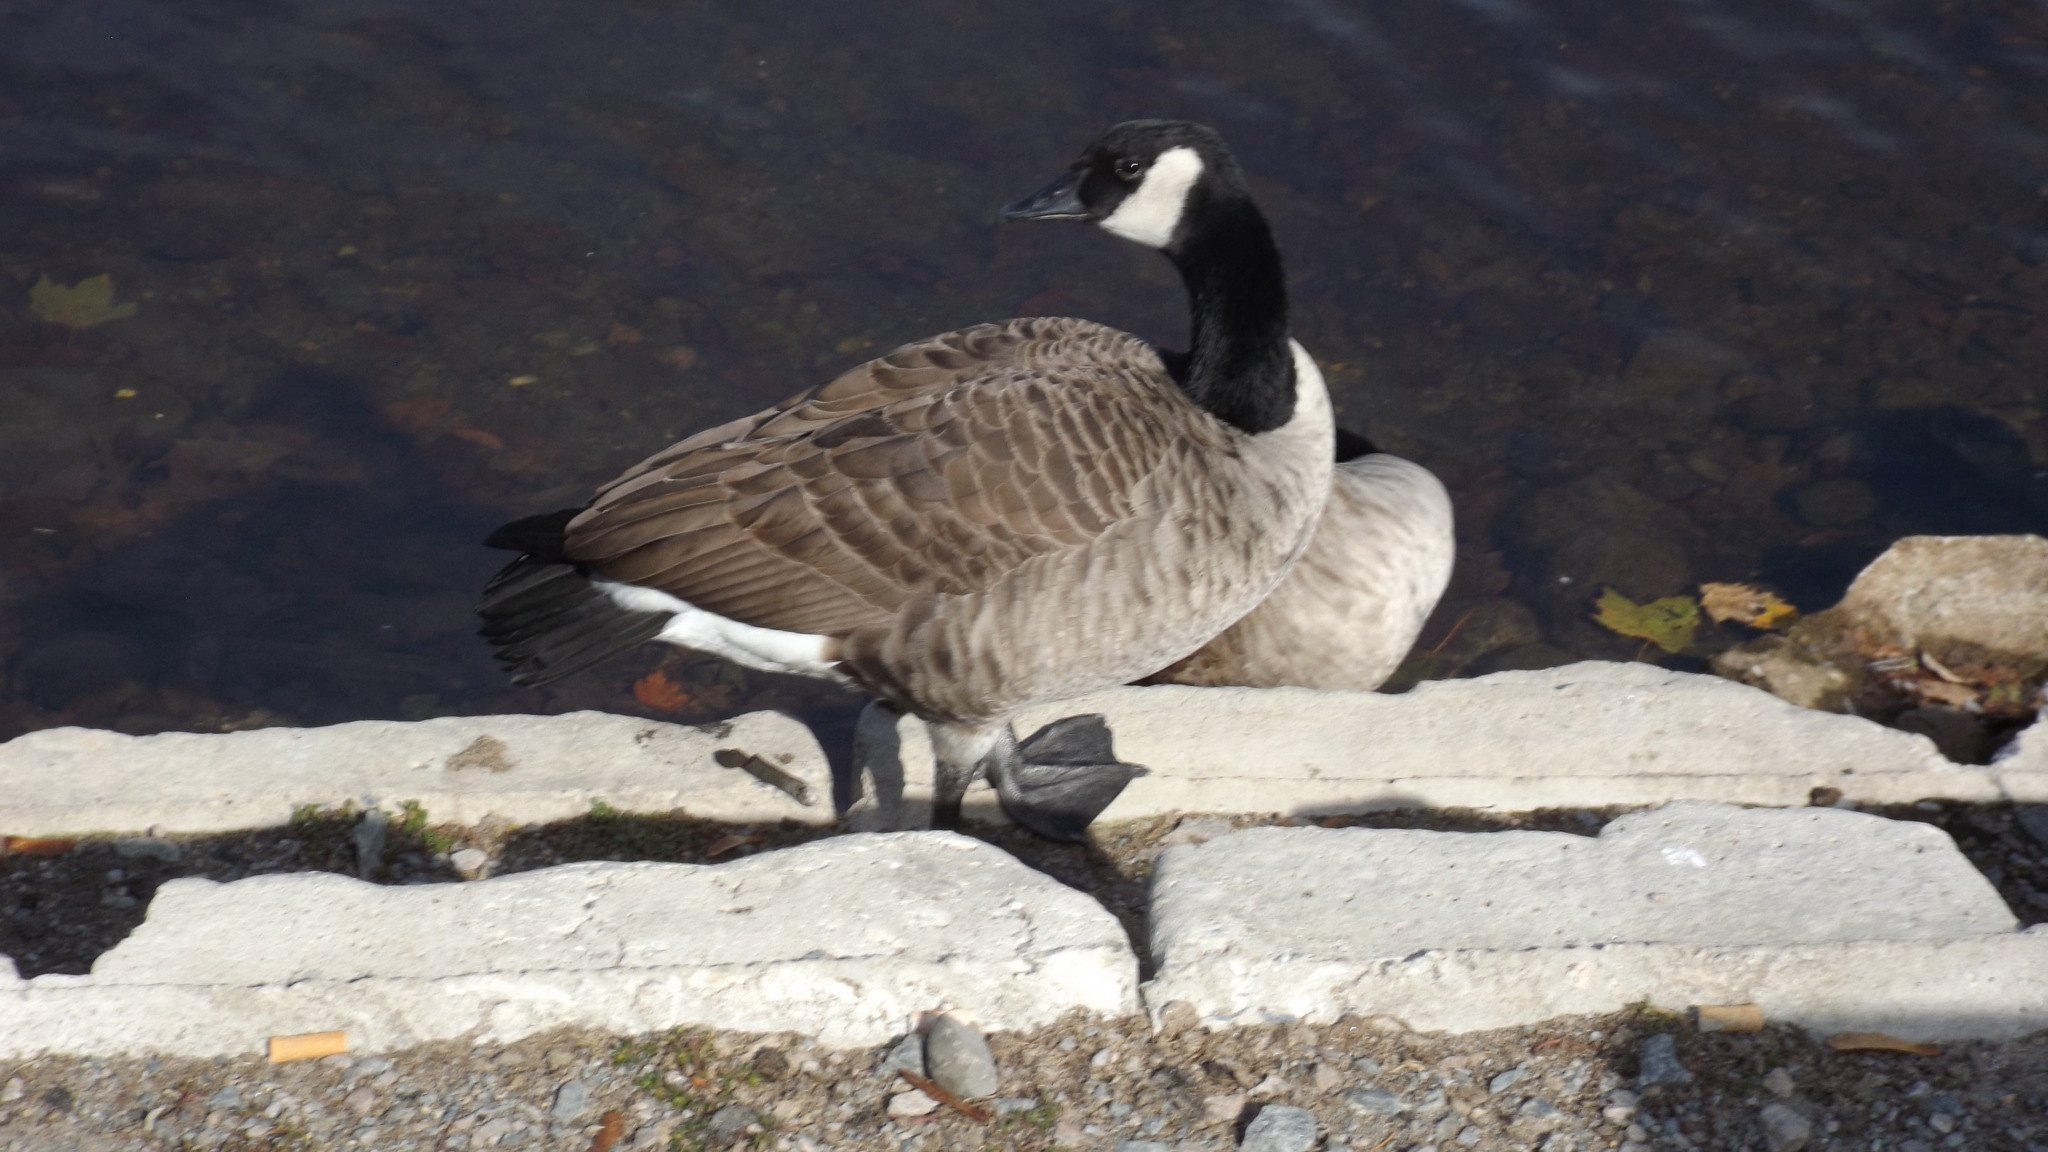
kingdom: Animalia
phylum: Chordata
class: Aves
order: Anseriformes
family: Anatidae
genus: Branta
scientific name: Branta canadensis
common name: Canada goose
